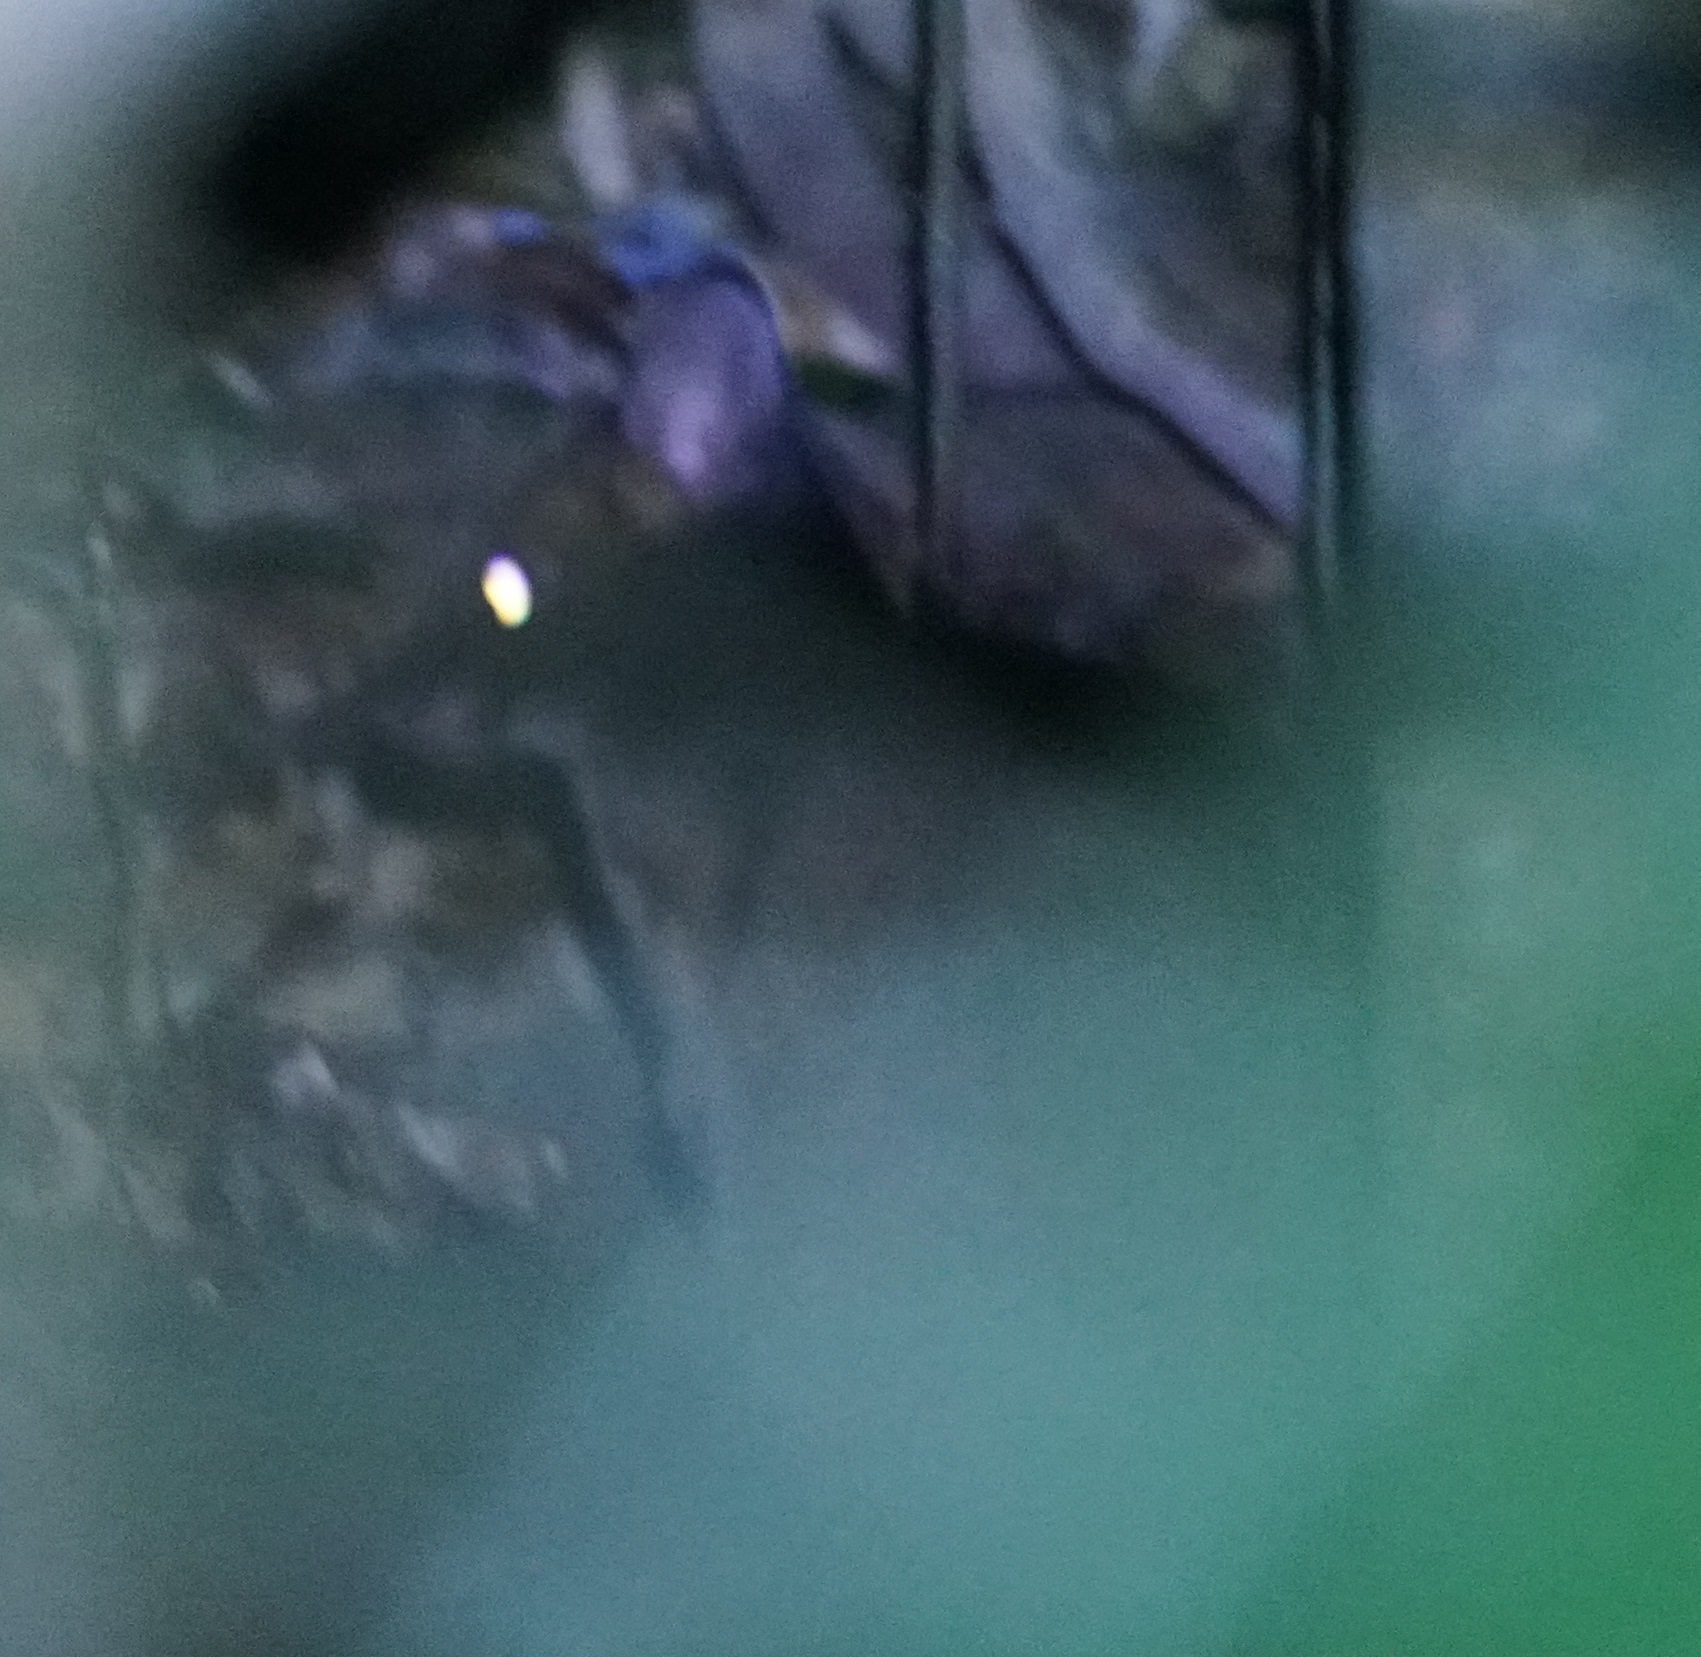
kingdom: Animalia
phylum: Chordata
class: Mammalia
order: Diprotodontia
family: Macropodidae
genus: Thylogale
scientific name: Thylogale stigmatica
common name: Red-legged pademelon
